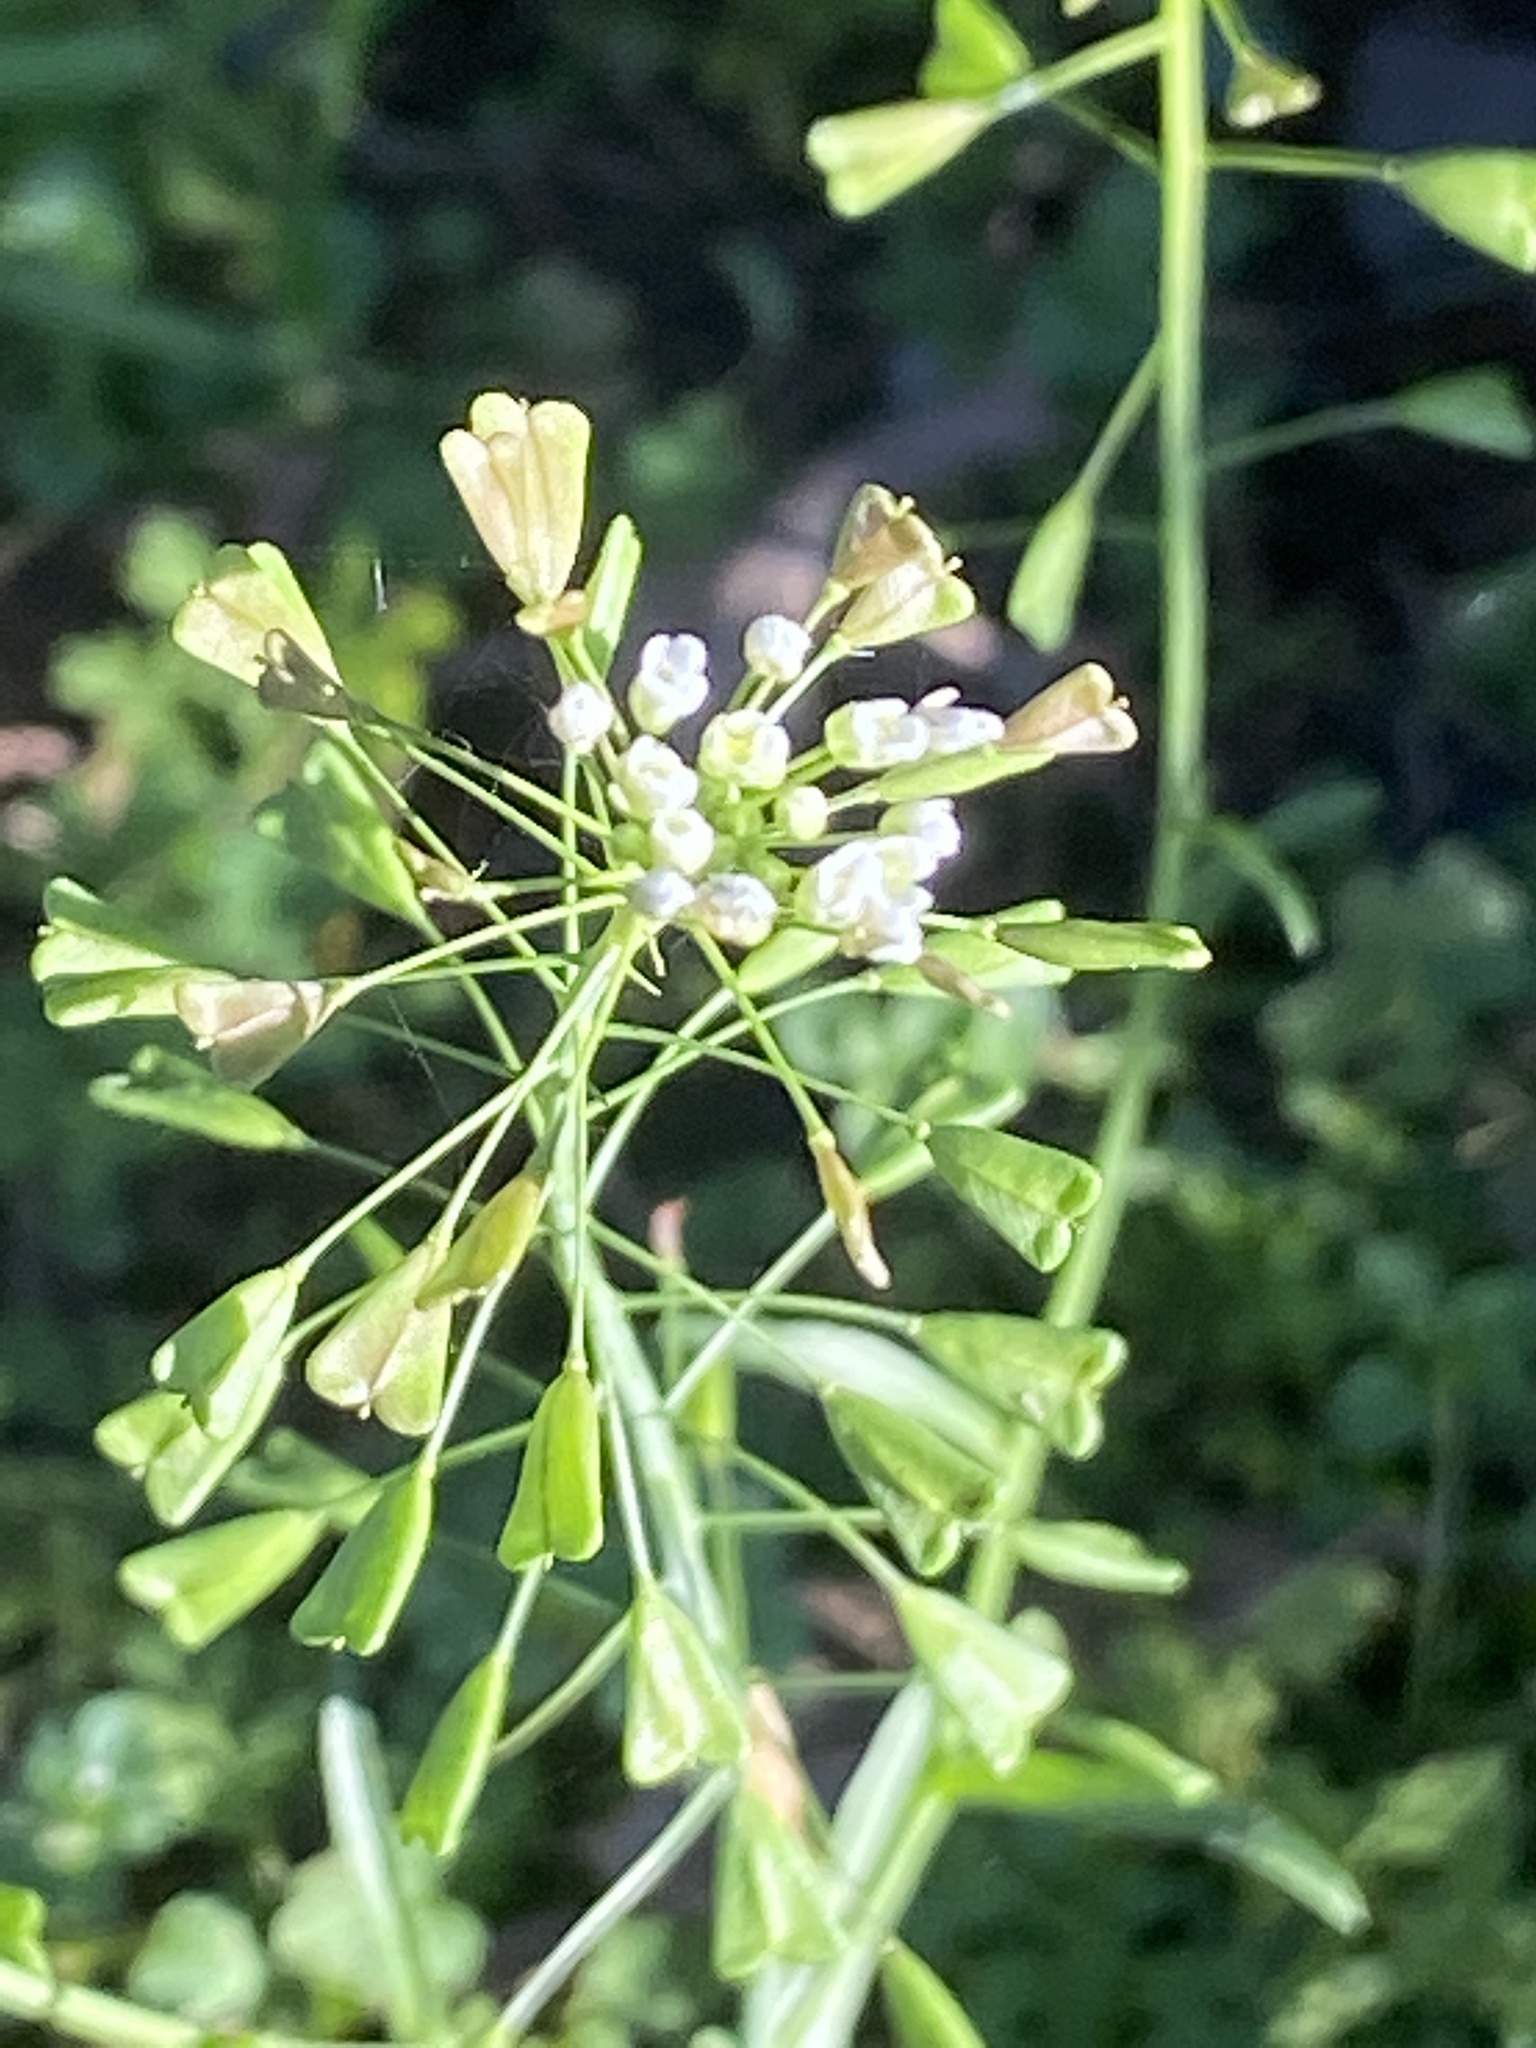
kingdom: Plantae
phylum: Tracheophyta
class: Magnoliopsida
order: Brassicales
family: Brassicaceae
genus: Capsella
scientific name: Capsella bursa-pastoris
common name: Shepherd's purse
